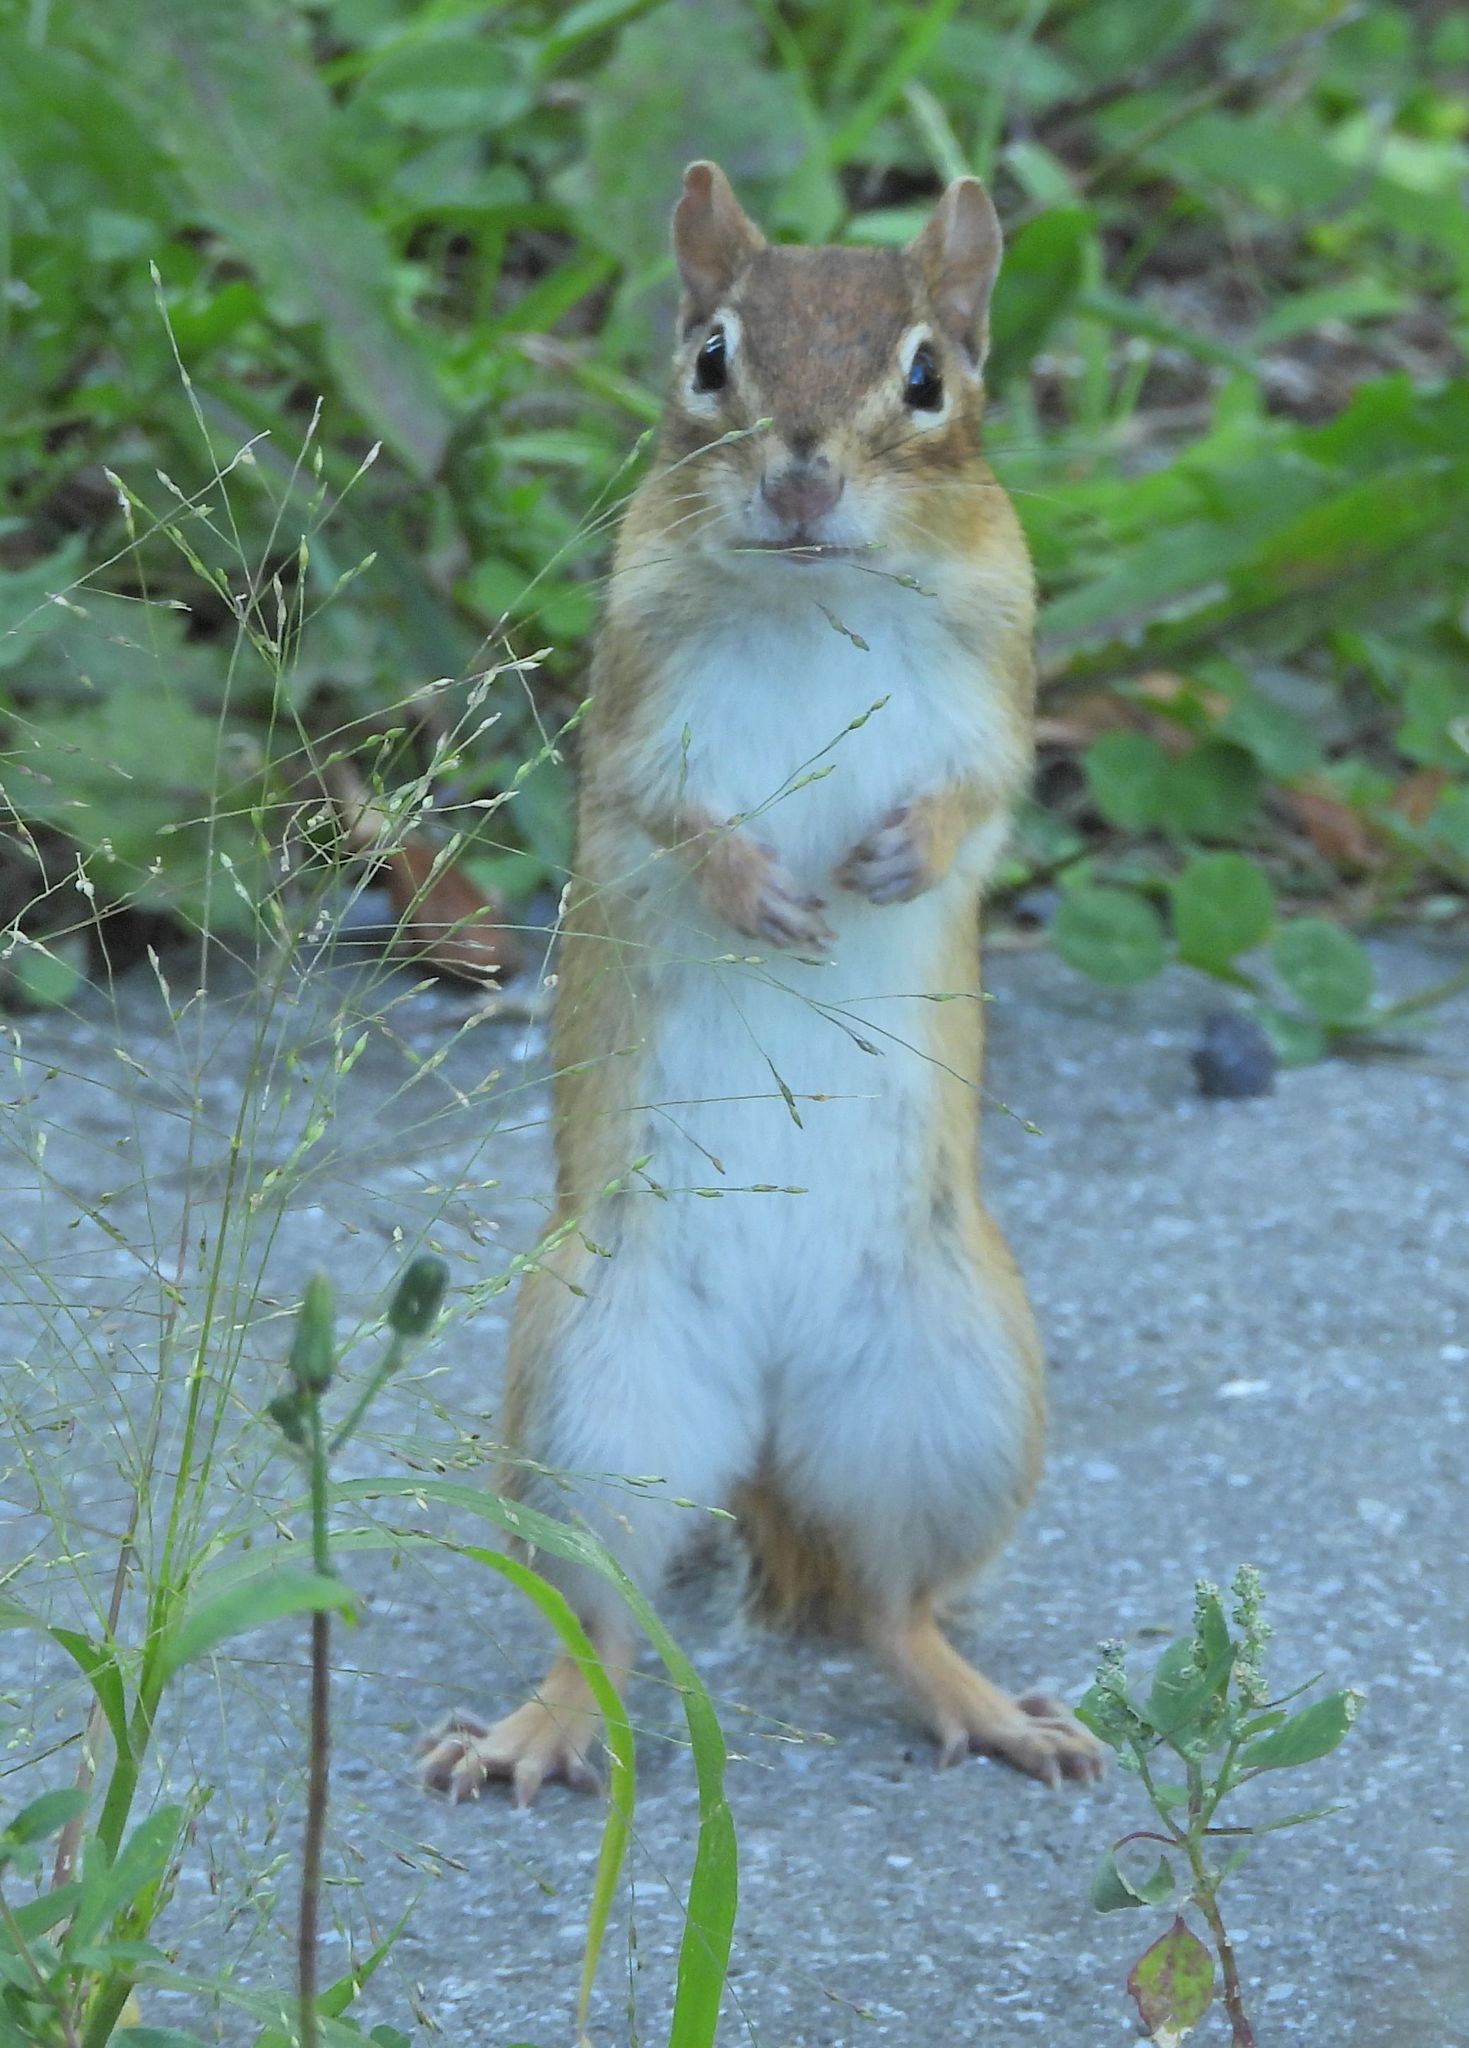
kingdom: Animalia
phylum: Chordata
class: Mammalia
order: Rodentia
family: Sciuridae
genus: Tamiasciurus
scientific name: Tamiasciurus hudsonicus
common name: Red squirrel
